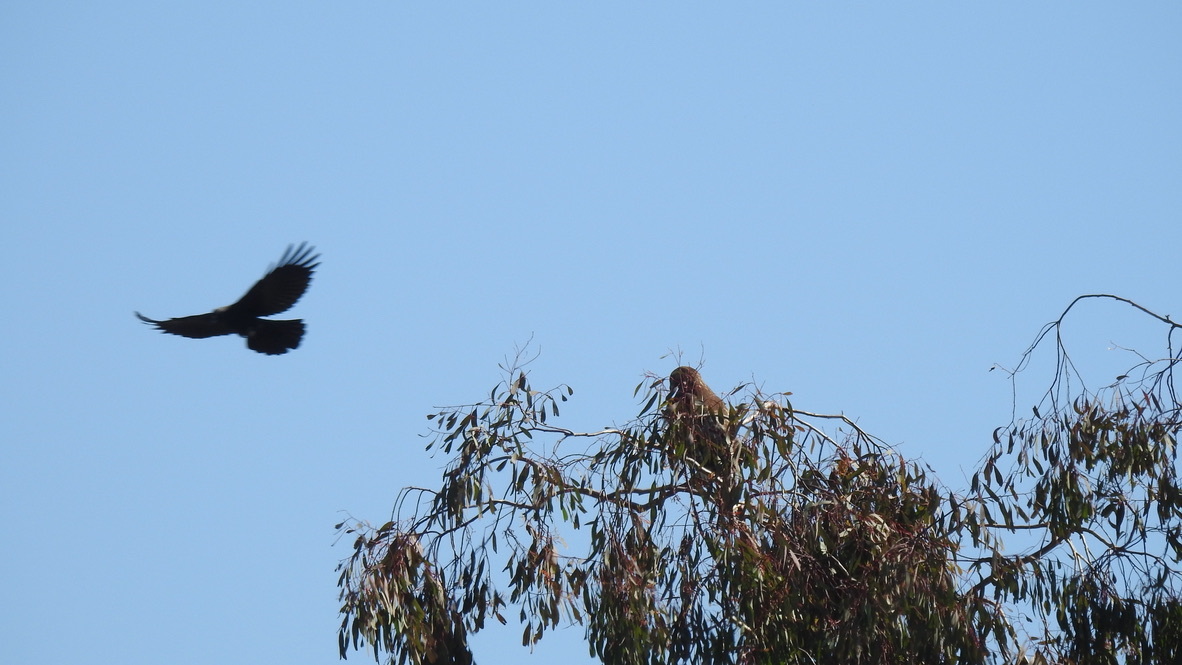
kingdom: Animalia
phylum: Chordata
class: Aves
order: Passeriformes
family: Corvidae
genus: Corvus
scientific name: Corvus brachyrhynchos
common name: American crow
